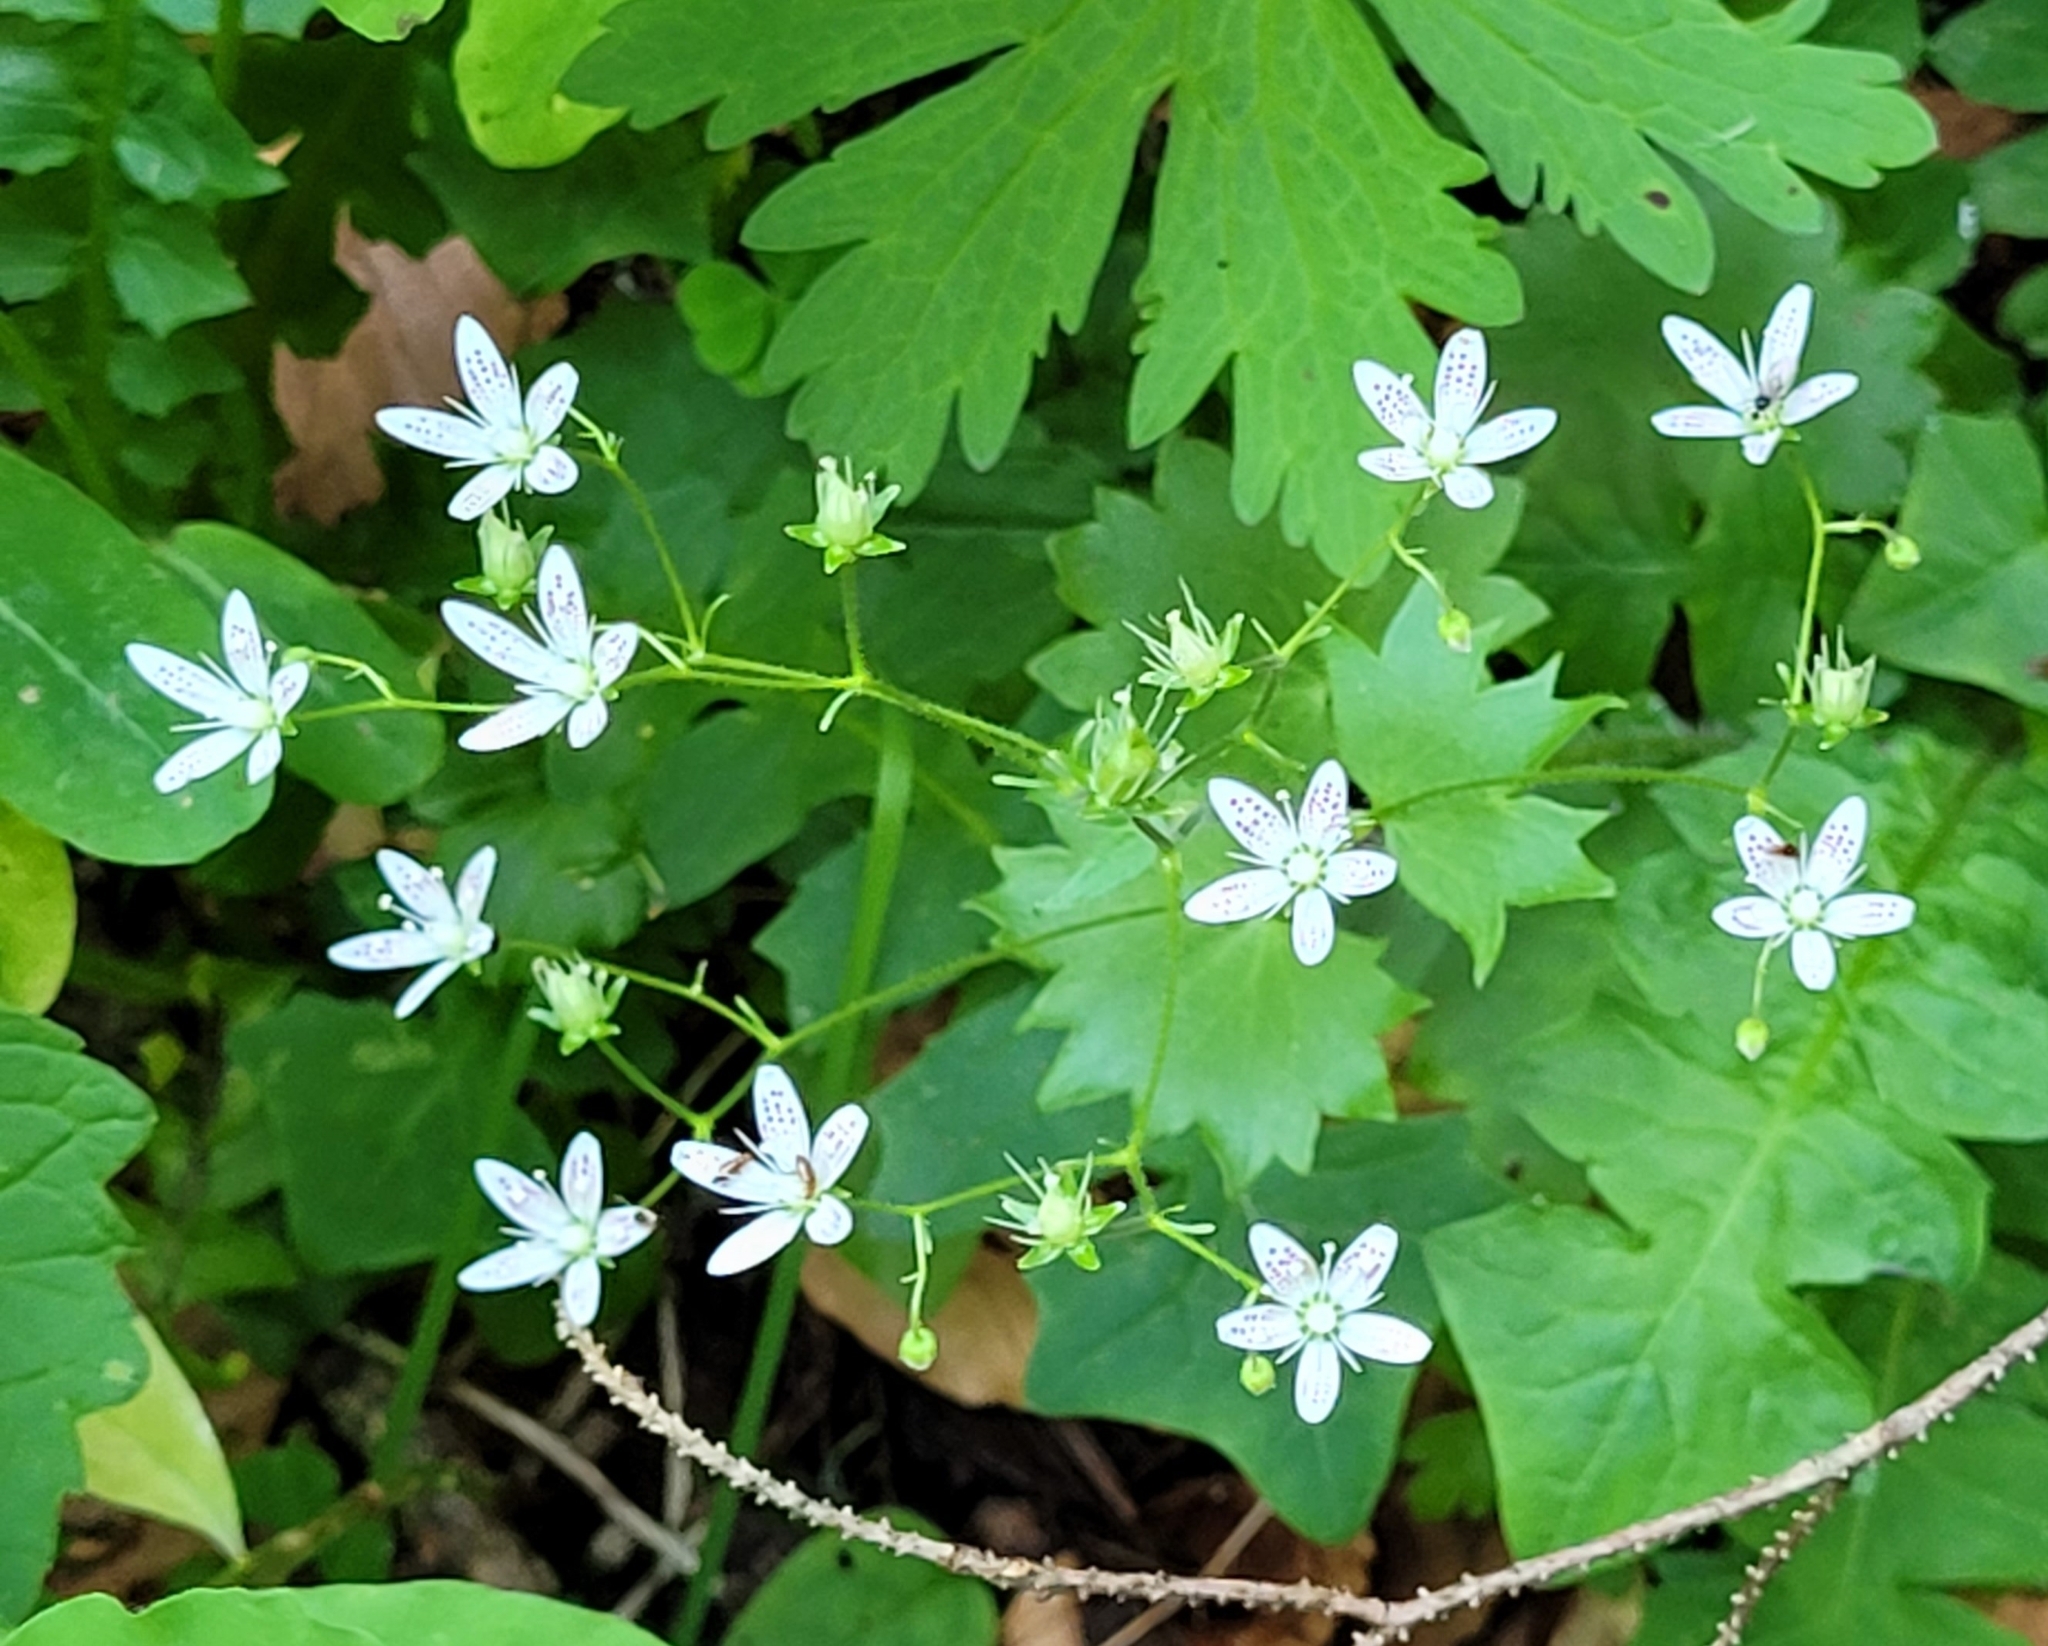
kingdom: Plantae
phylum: Tracheophyta
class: Magnoliopsida
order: Saxifragales
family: Saxifragaceae
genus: Saxifraga
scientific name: Saxifraga rotundifolia
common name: Round-leaved saxifrage
